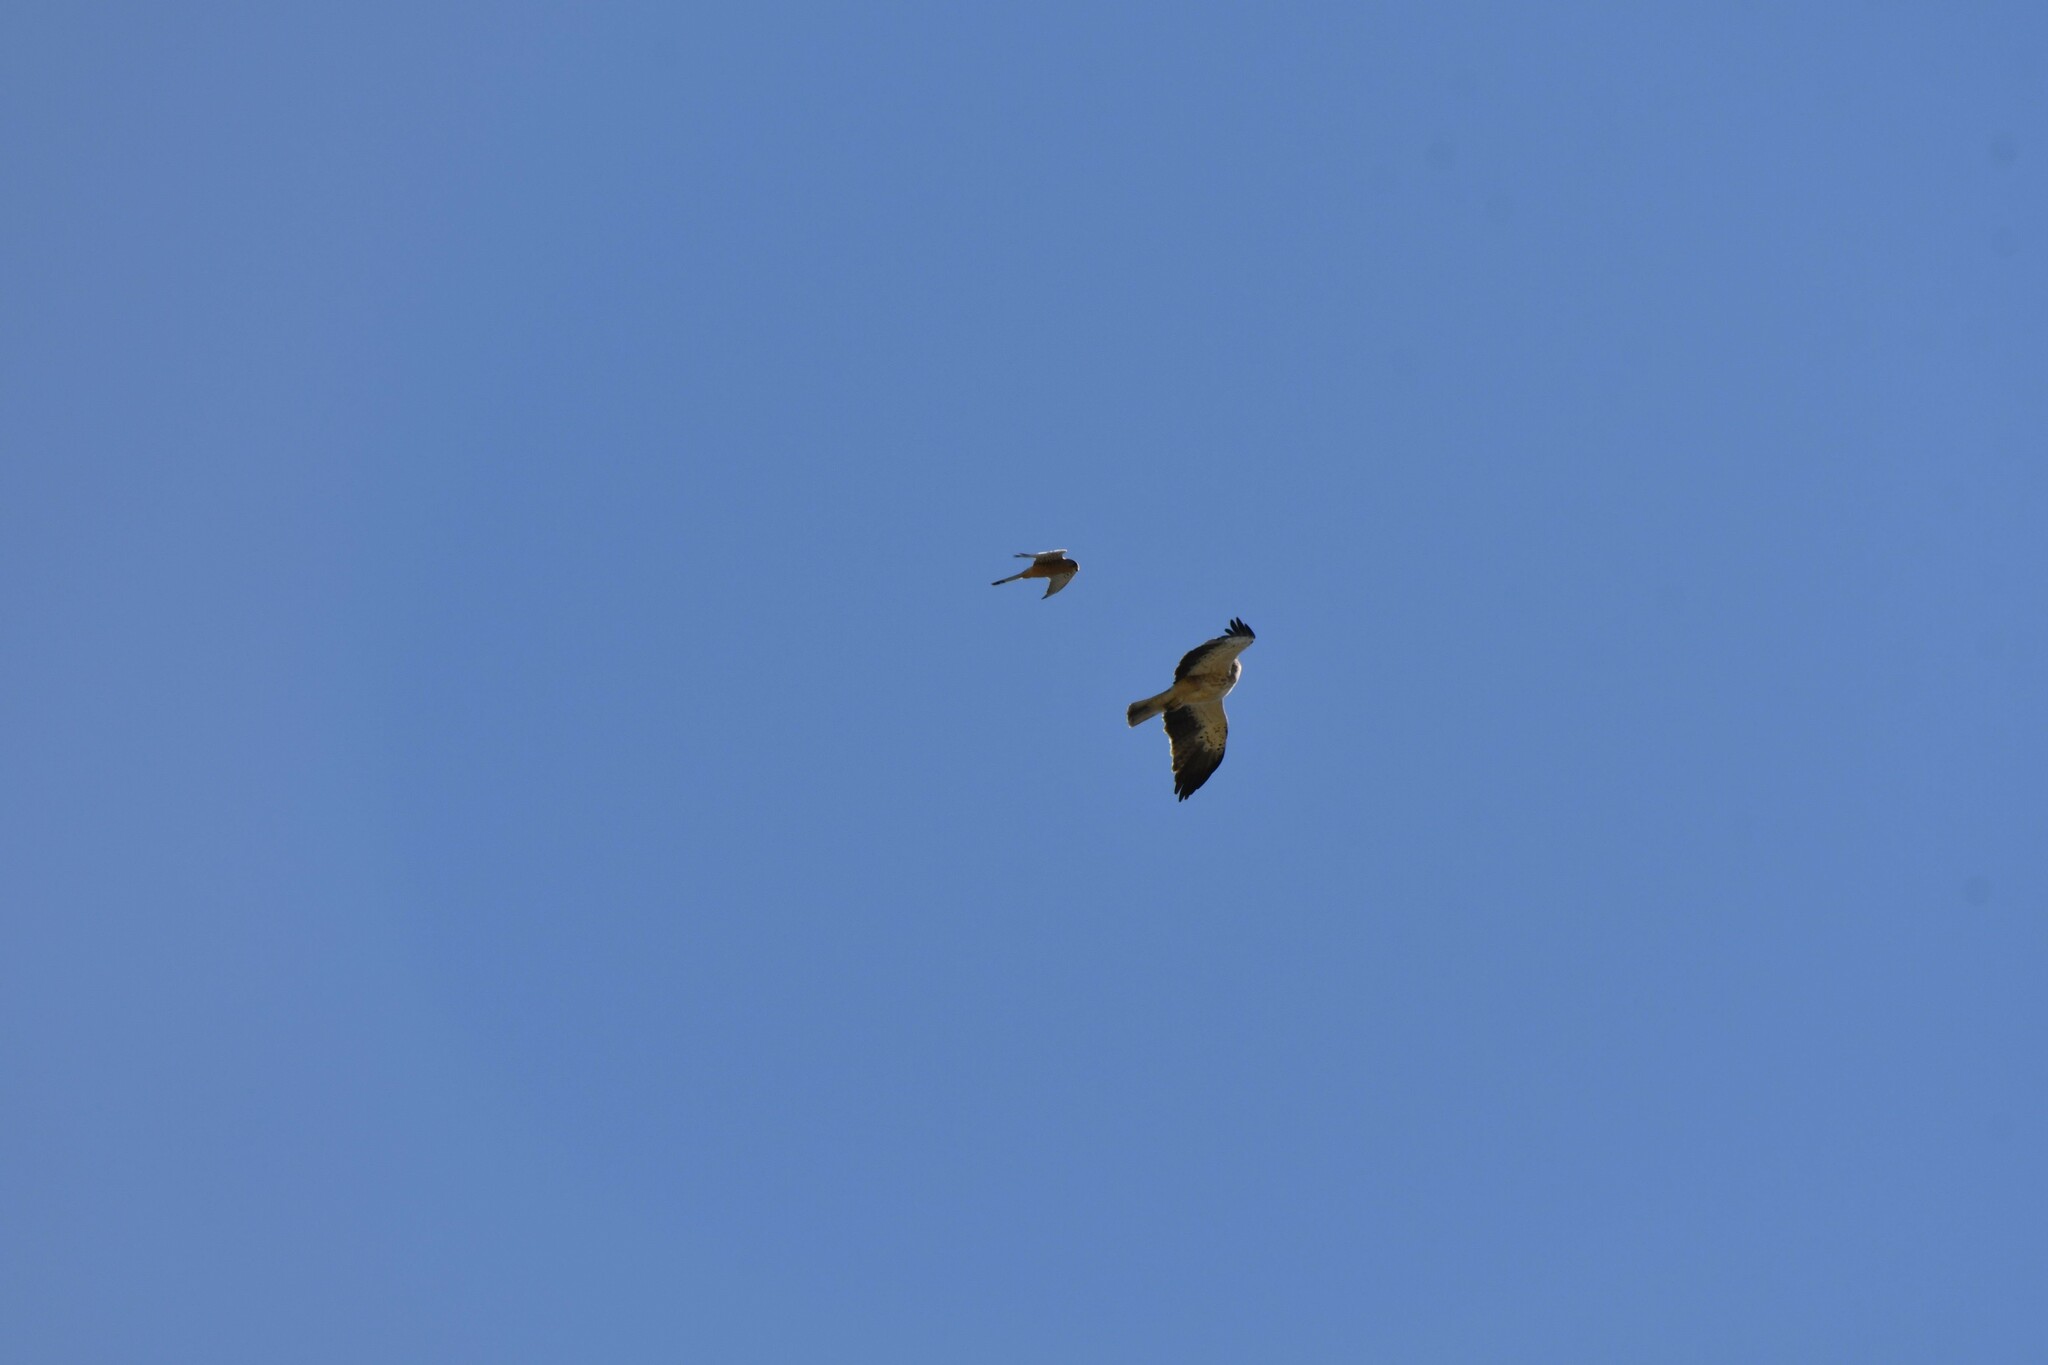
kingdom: Animalia
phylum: Chordata
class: Aves
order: Accipitriformes
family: Accipitridae
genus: Hieraaetus
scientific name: Hieraaetus pennatus
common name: Booted eagle
